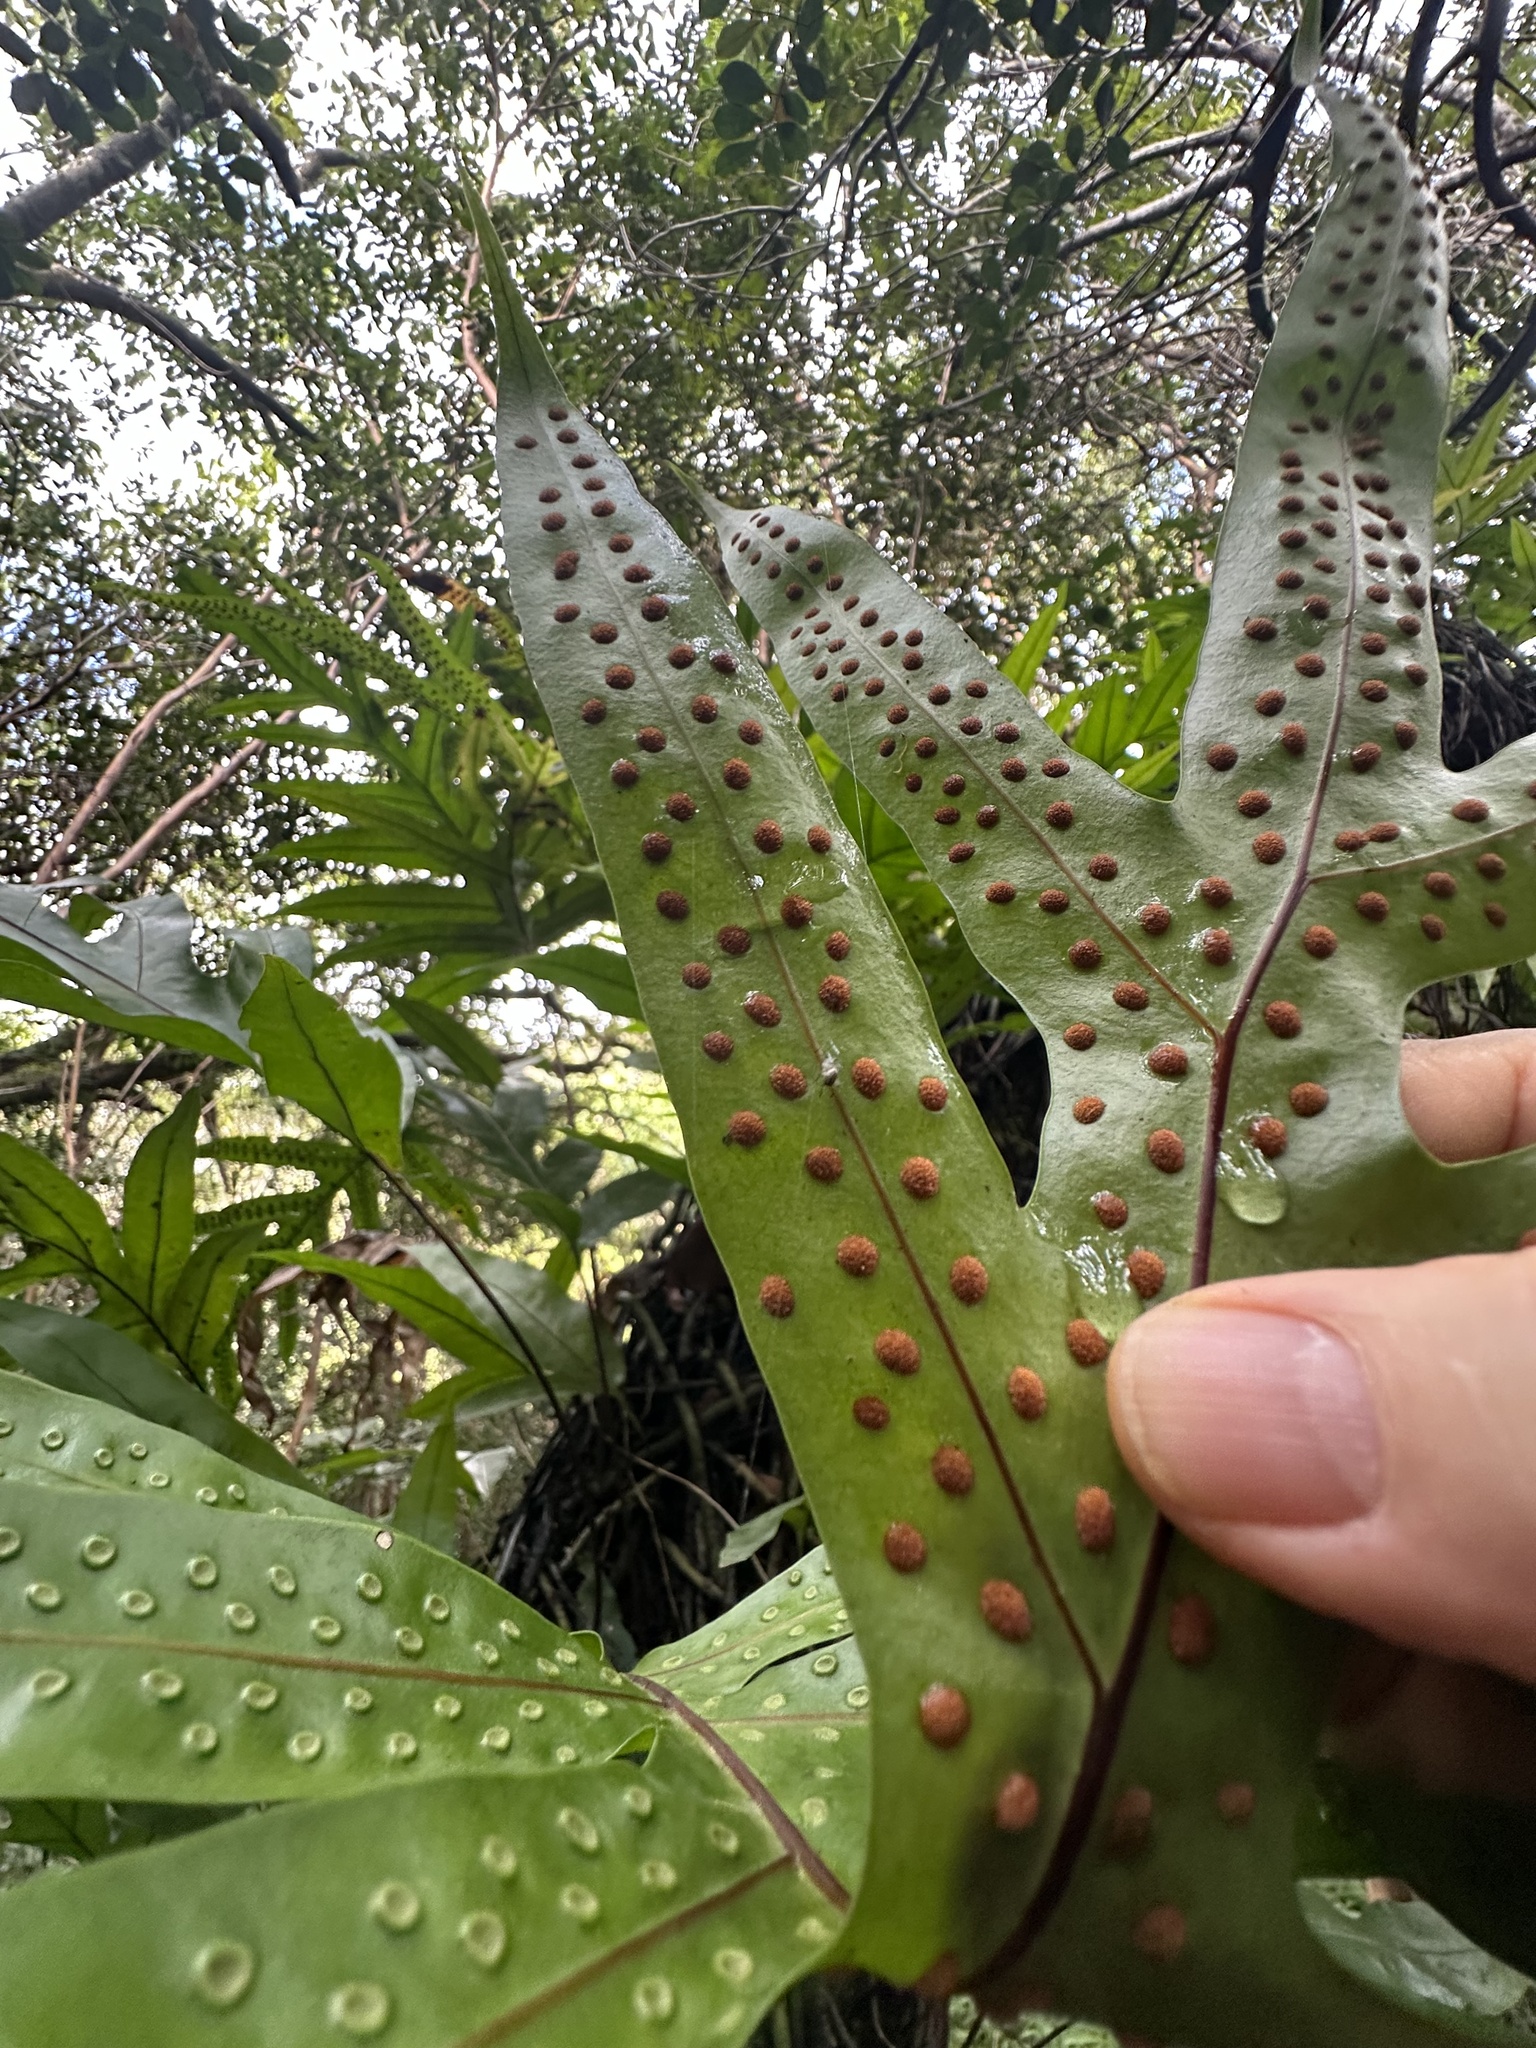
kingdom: Plantae
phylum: Tracheophyta
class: Polypodiopsida
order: Polypodiales
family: Polypodiaceae
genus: Microsorum
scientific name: Microsorum grossum
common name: Musk fern
